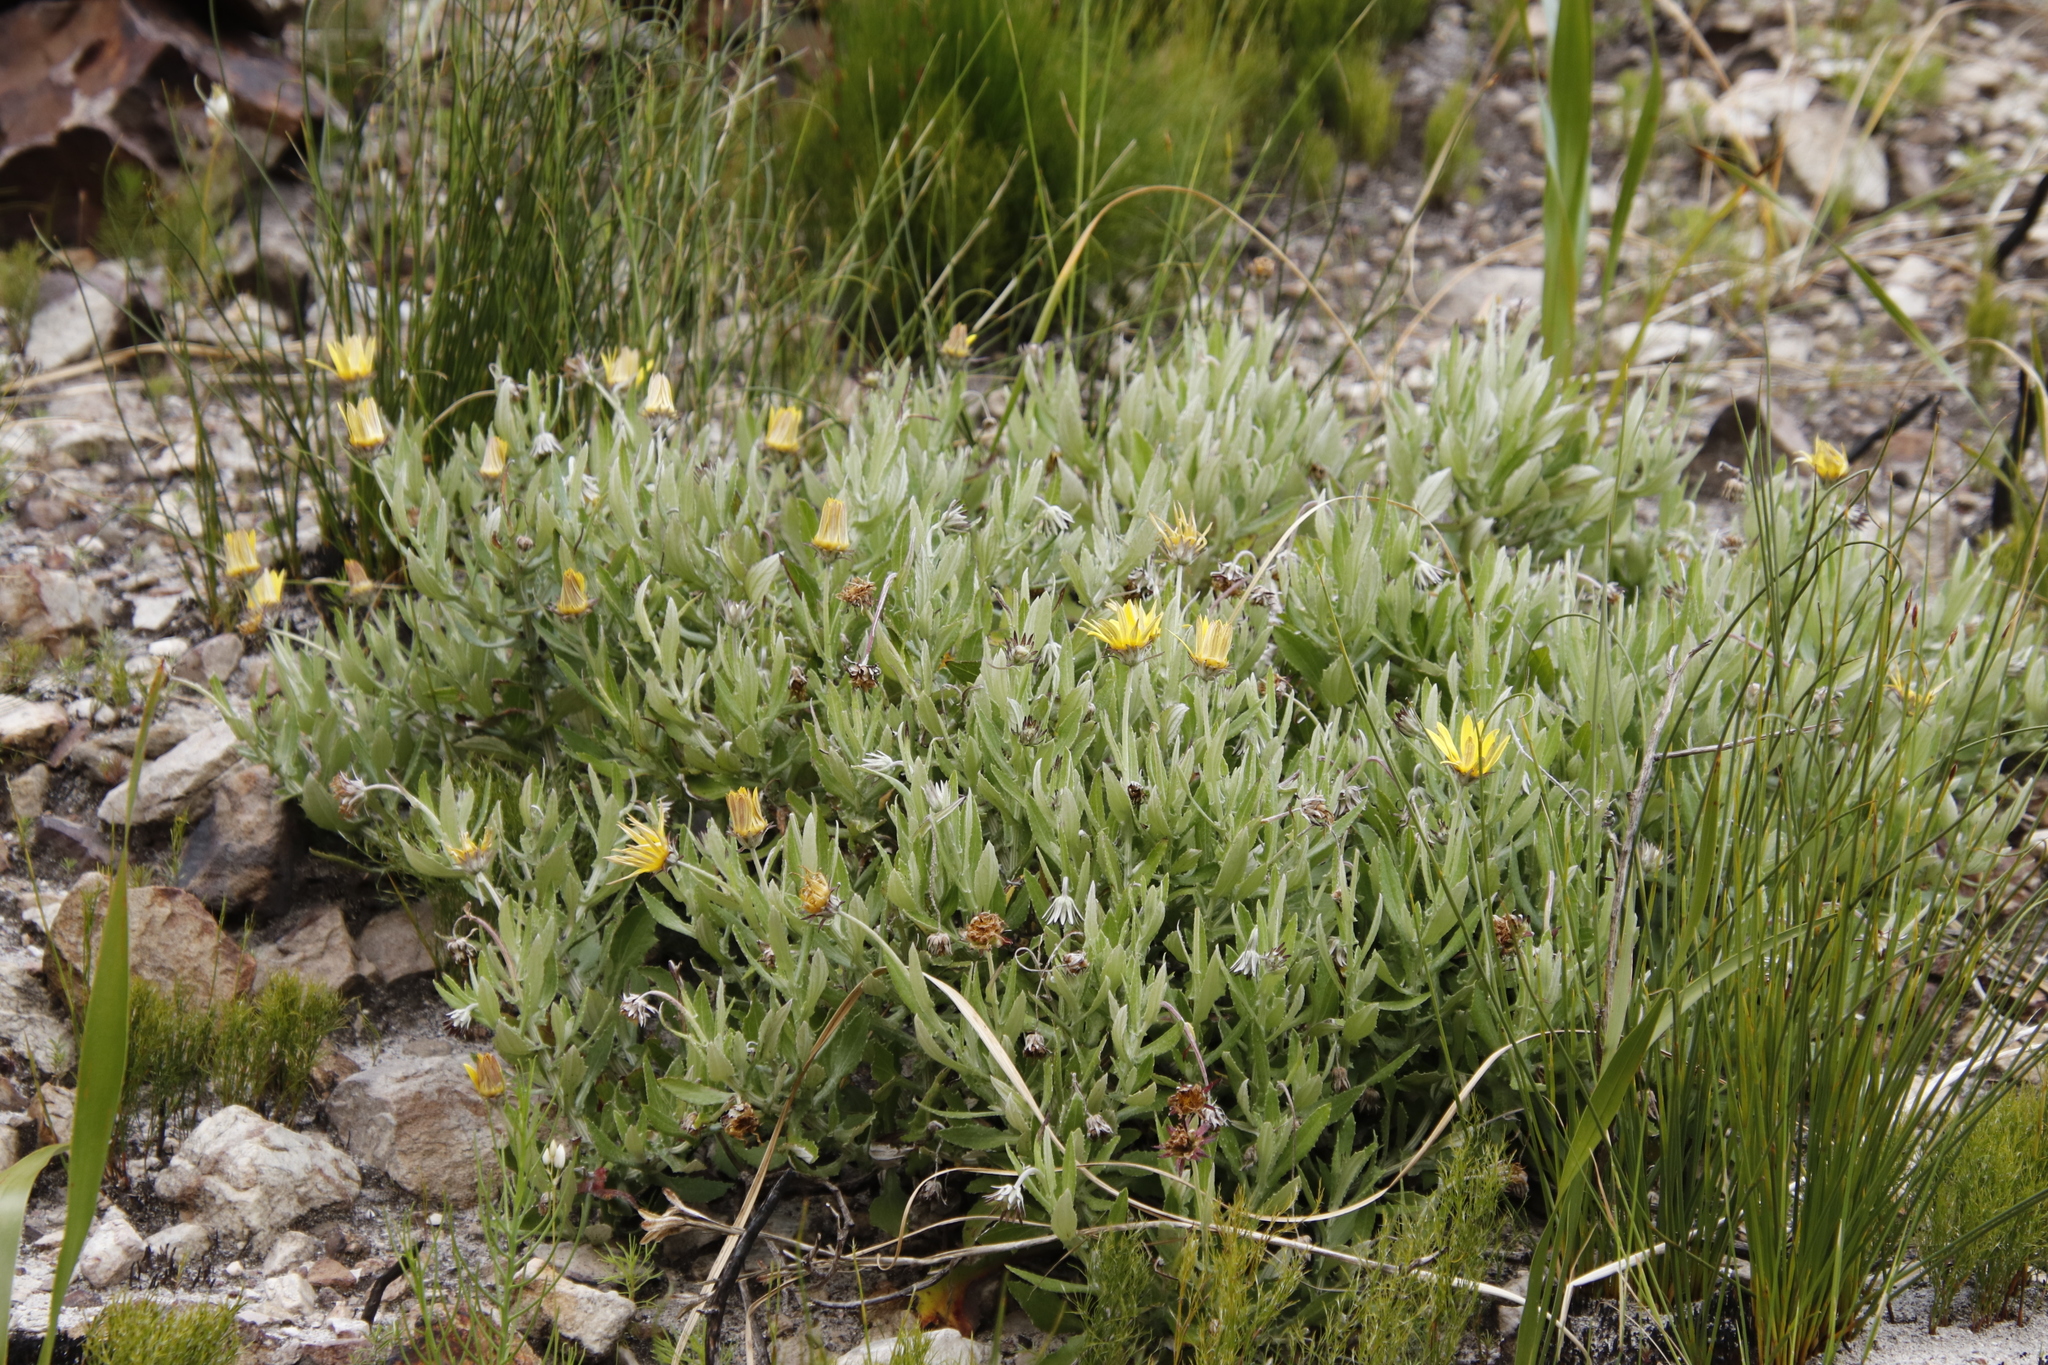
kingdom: Plantae
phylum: Tracheophyta
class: Magnoliopsida
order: Asterales
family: Asteraceae
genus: Arctotis
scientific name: Arctotis scabra
